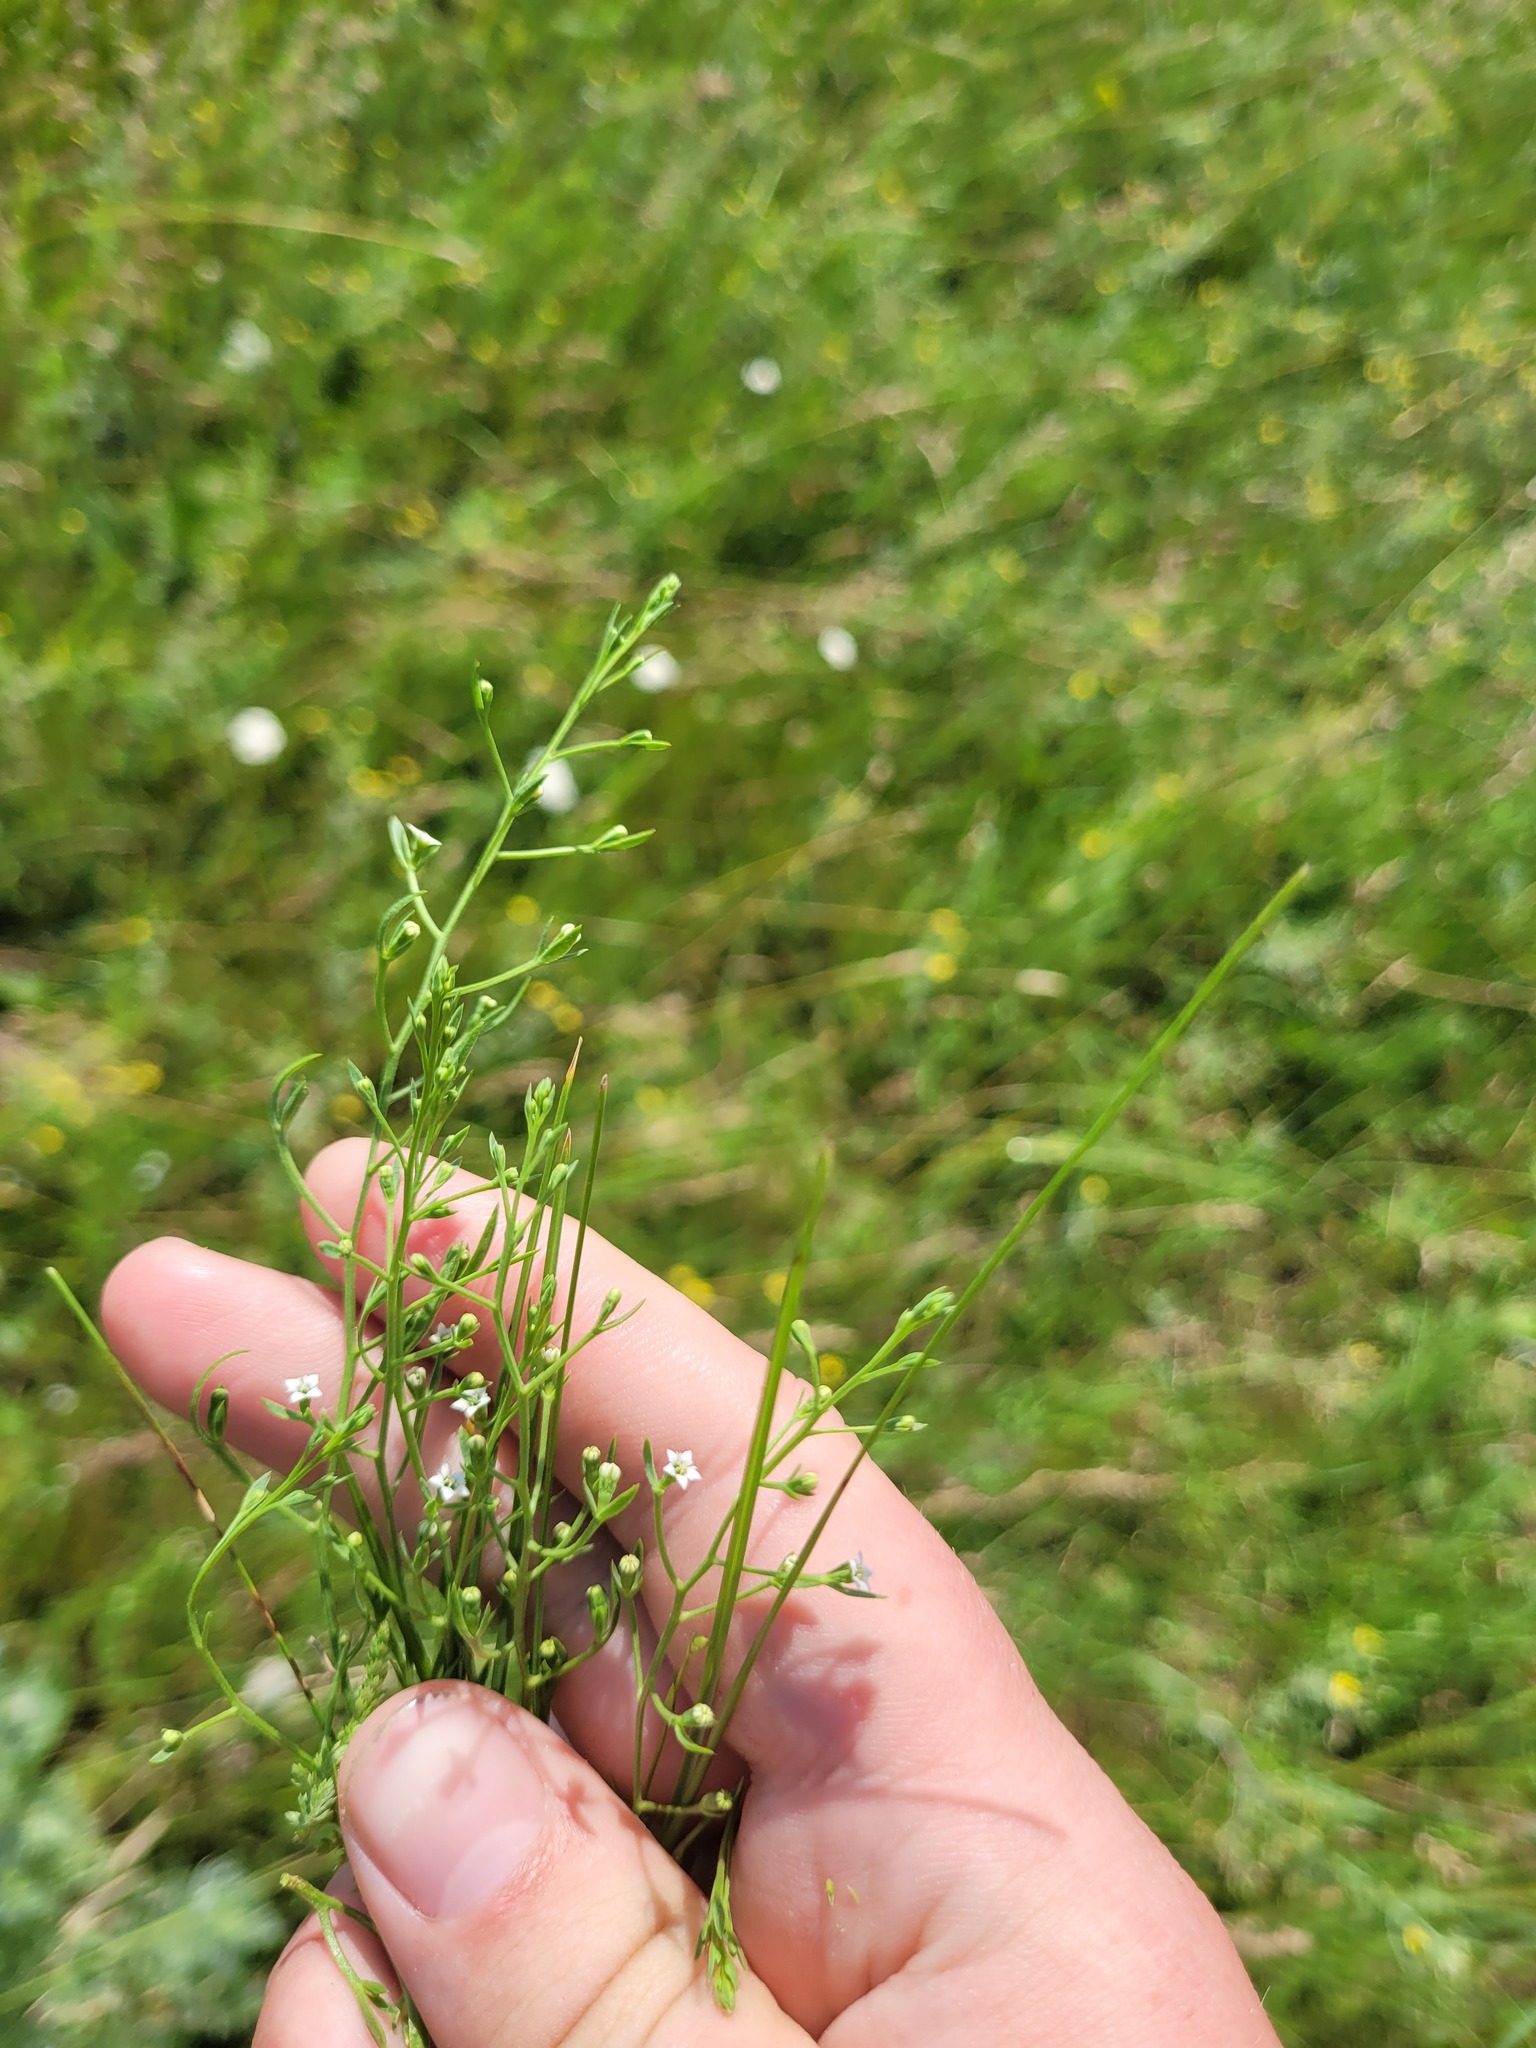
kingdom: Plantae
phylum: Tracheophyta
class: Magnoliopsida
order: Santalales
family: Thesiaceae
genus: Thesium
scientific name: Thesium ramosum
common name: Field thesium
